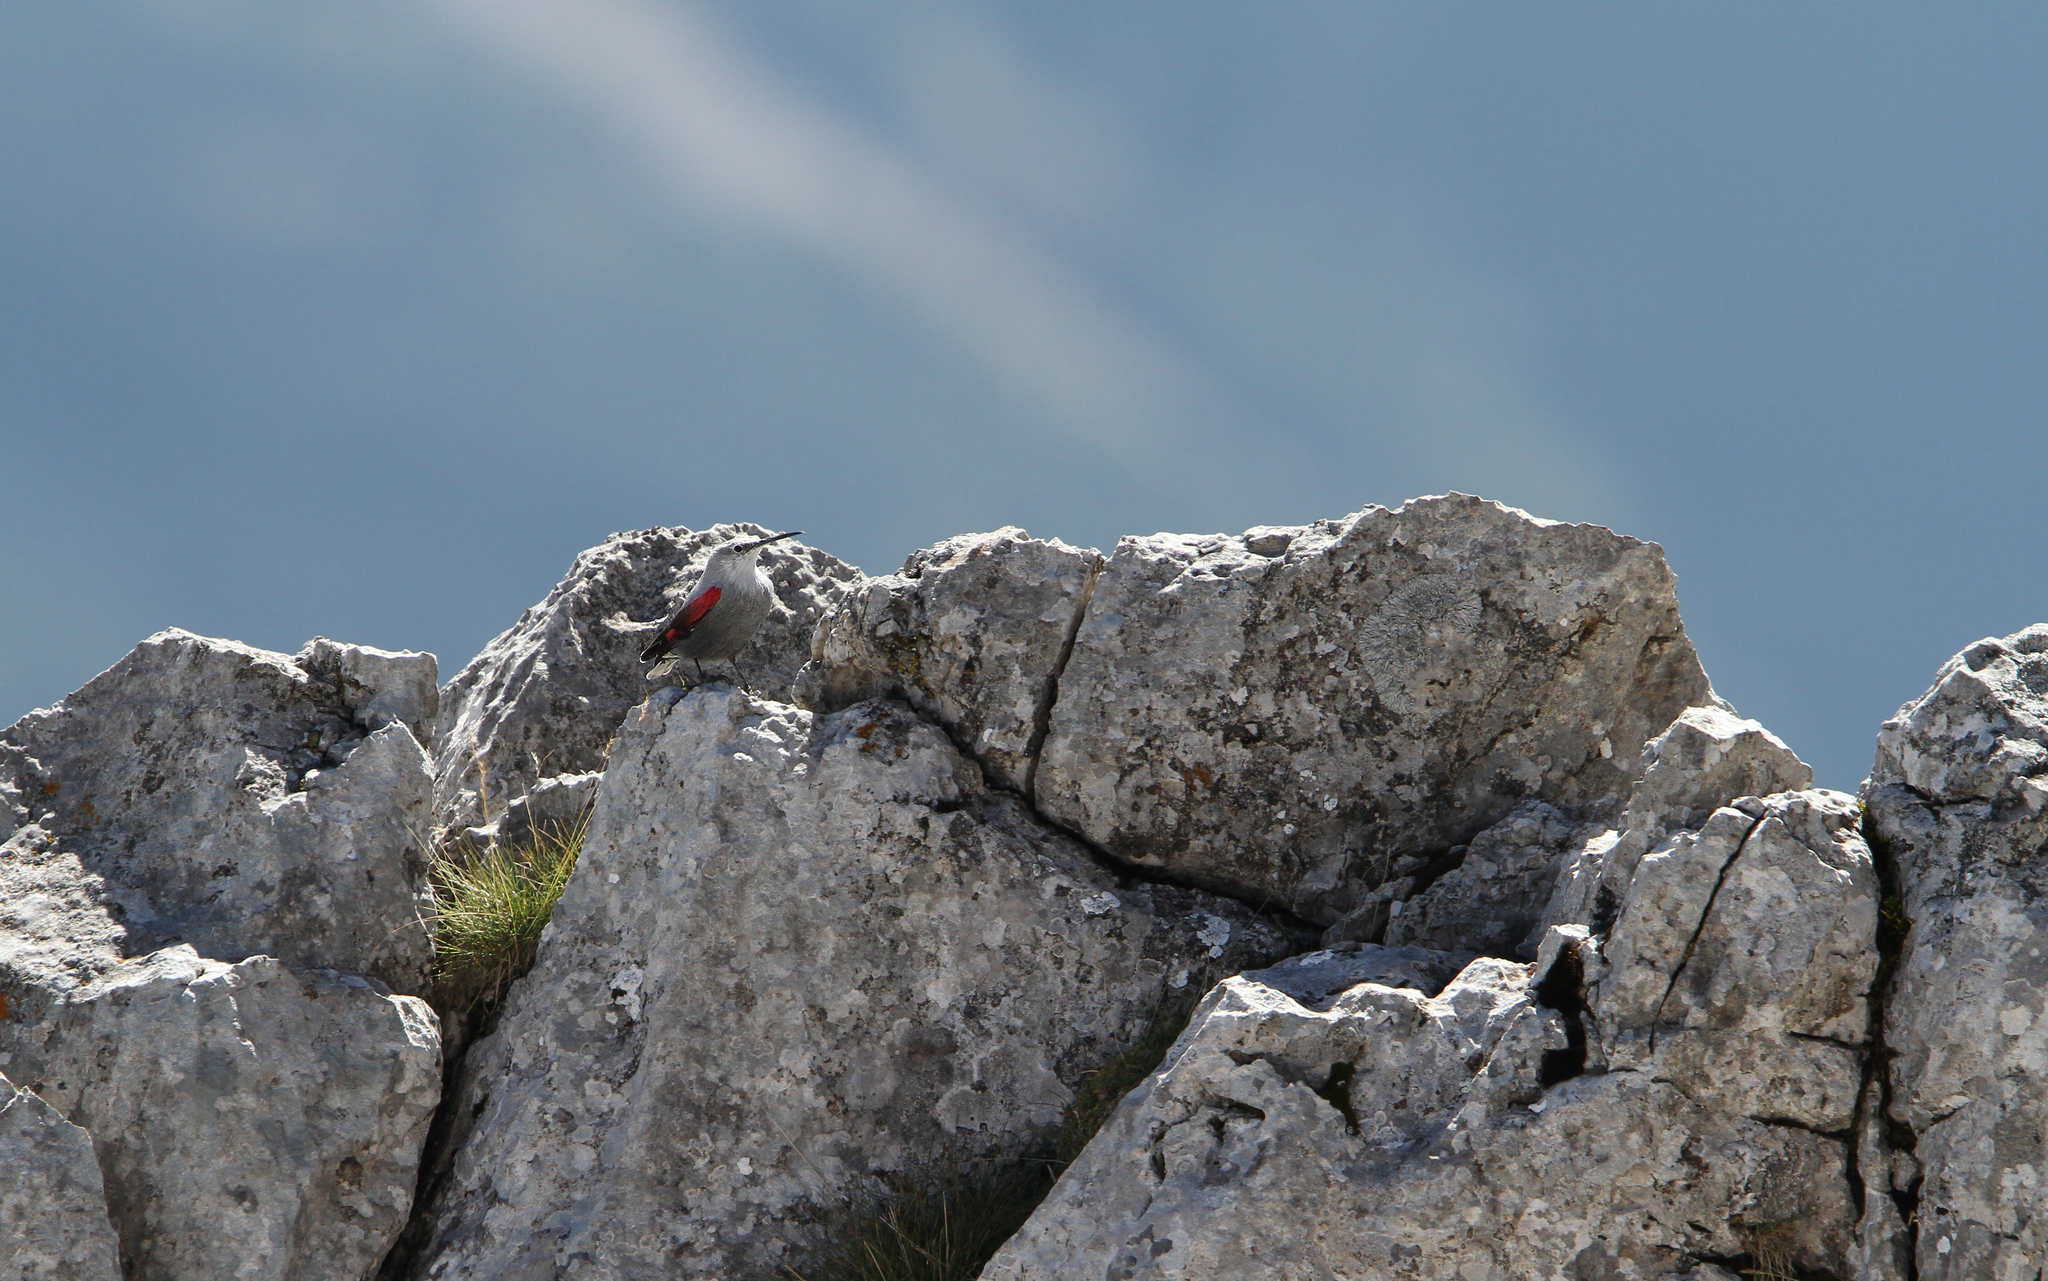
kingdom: Animalia
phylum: Chordata
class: Aves
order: Passeriformes
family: Tichodromidae
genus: Tichodroma
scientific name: Tichodroma muraria
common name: Wallcreeper
